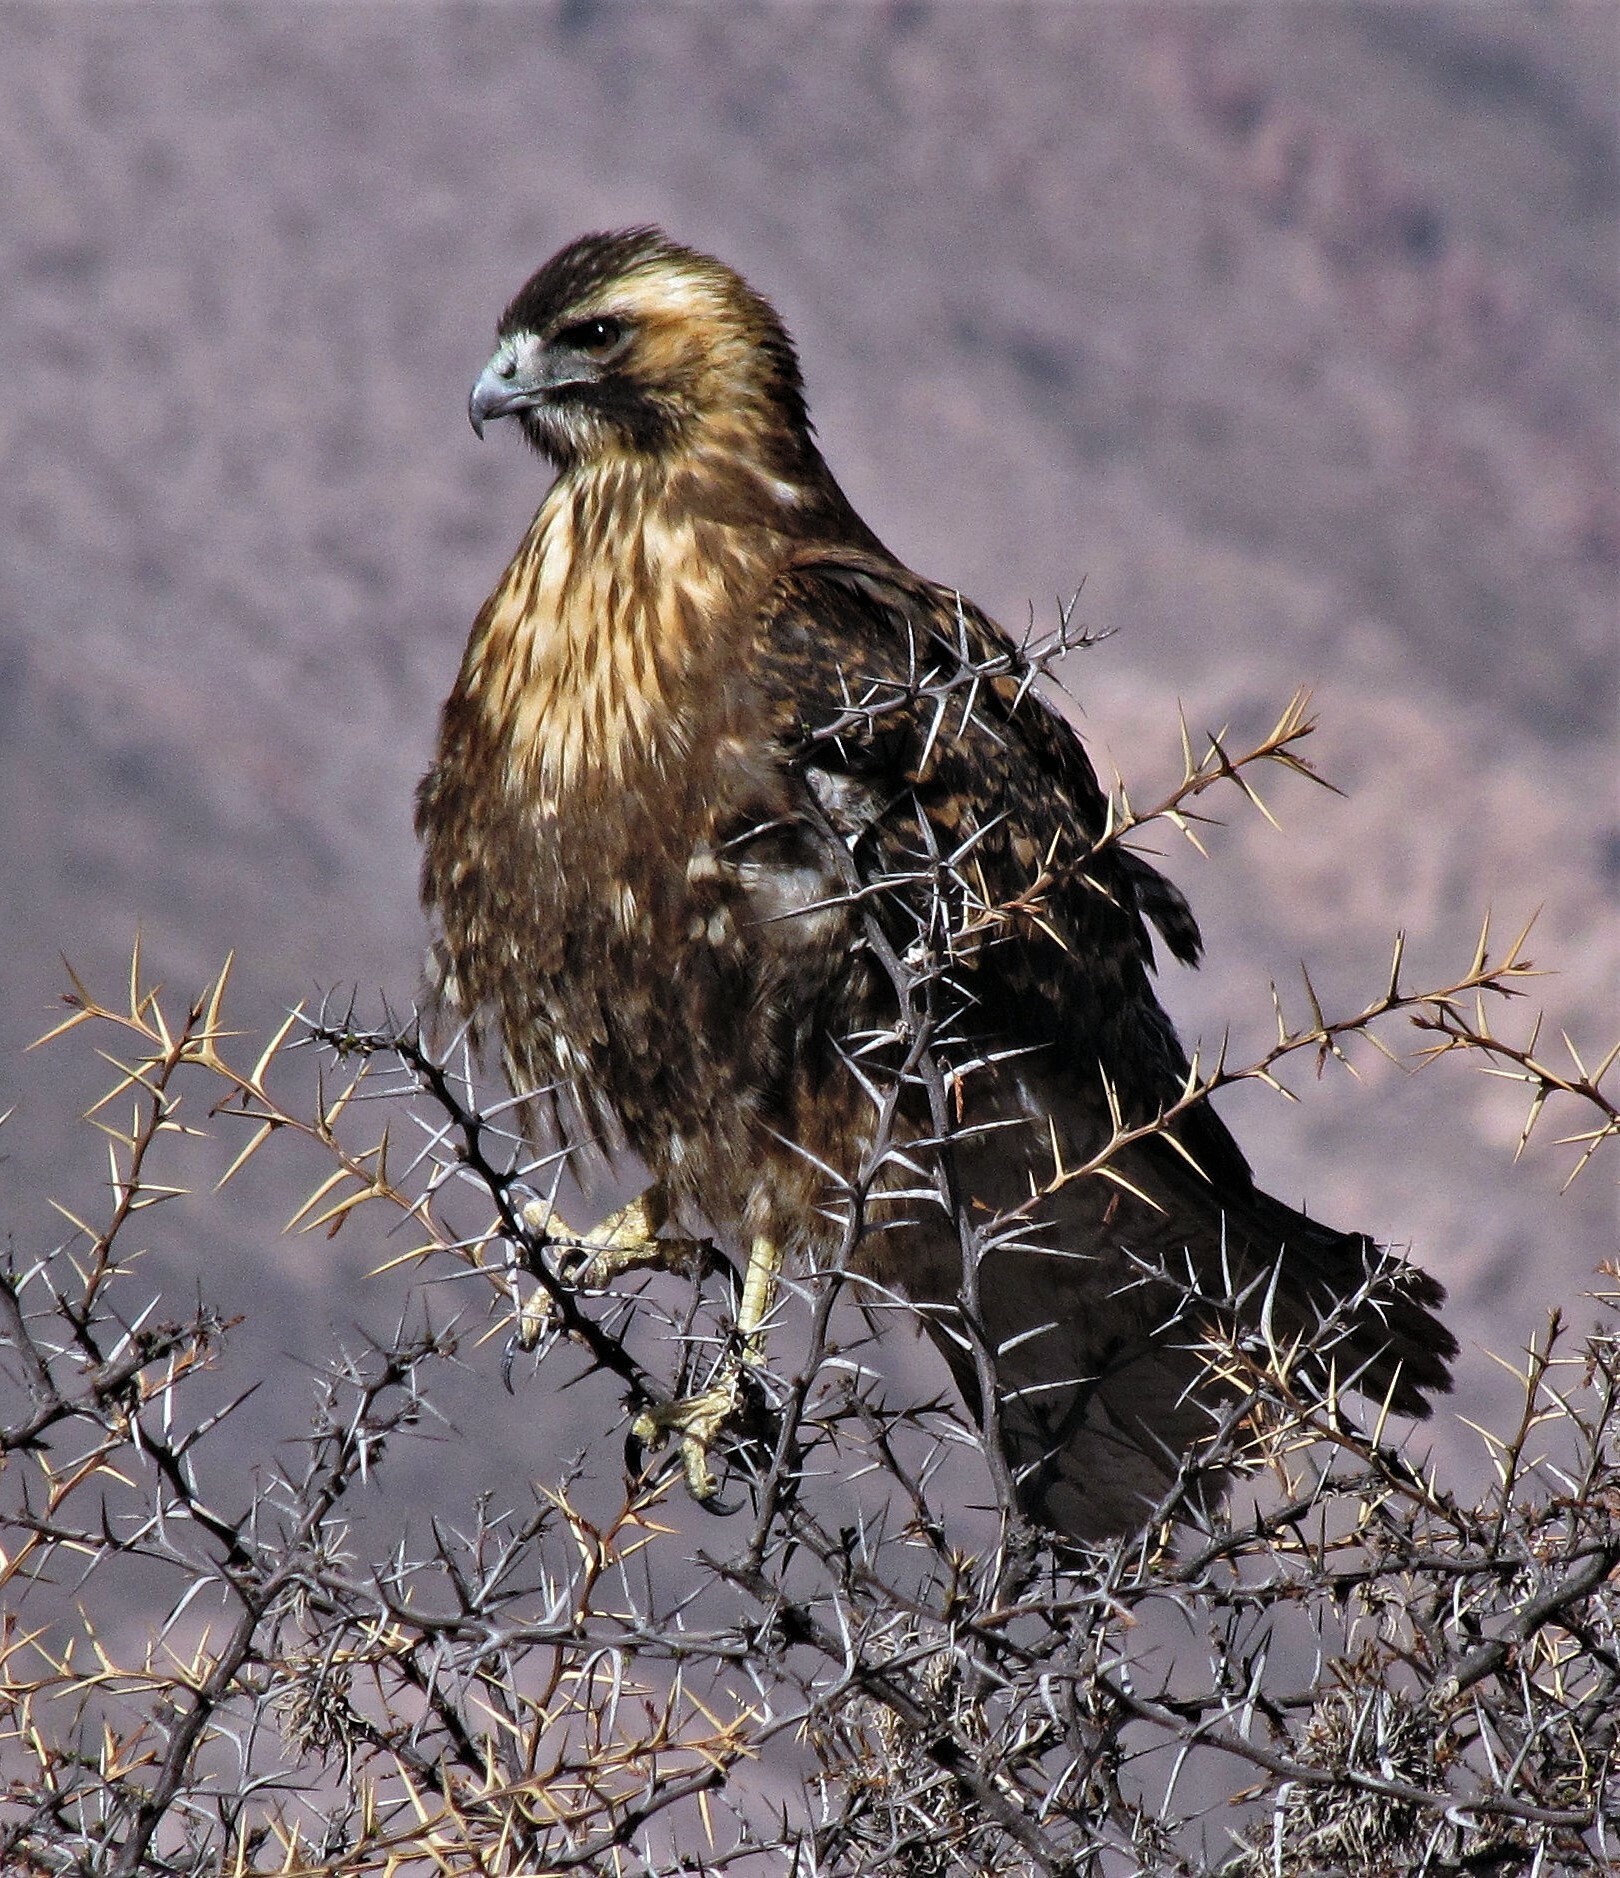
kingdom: Animalia
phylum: Chordata
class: Aves
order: Accipitriformes
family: Accipitridae
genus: Buteo
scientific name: Buteo polyosoma
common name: Variable hawk
